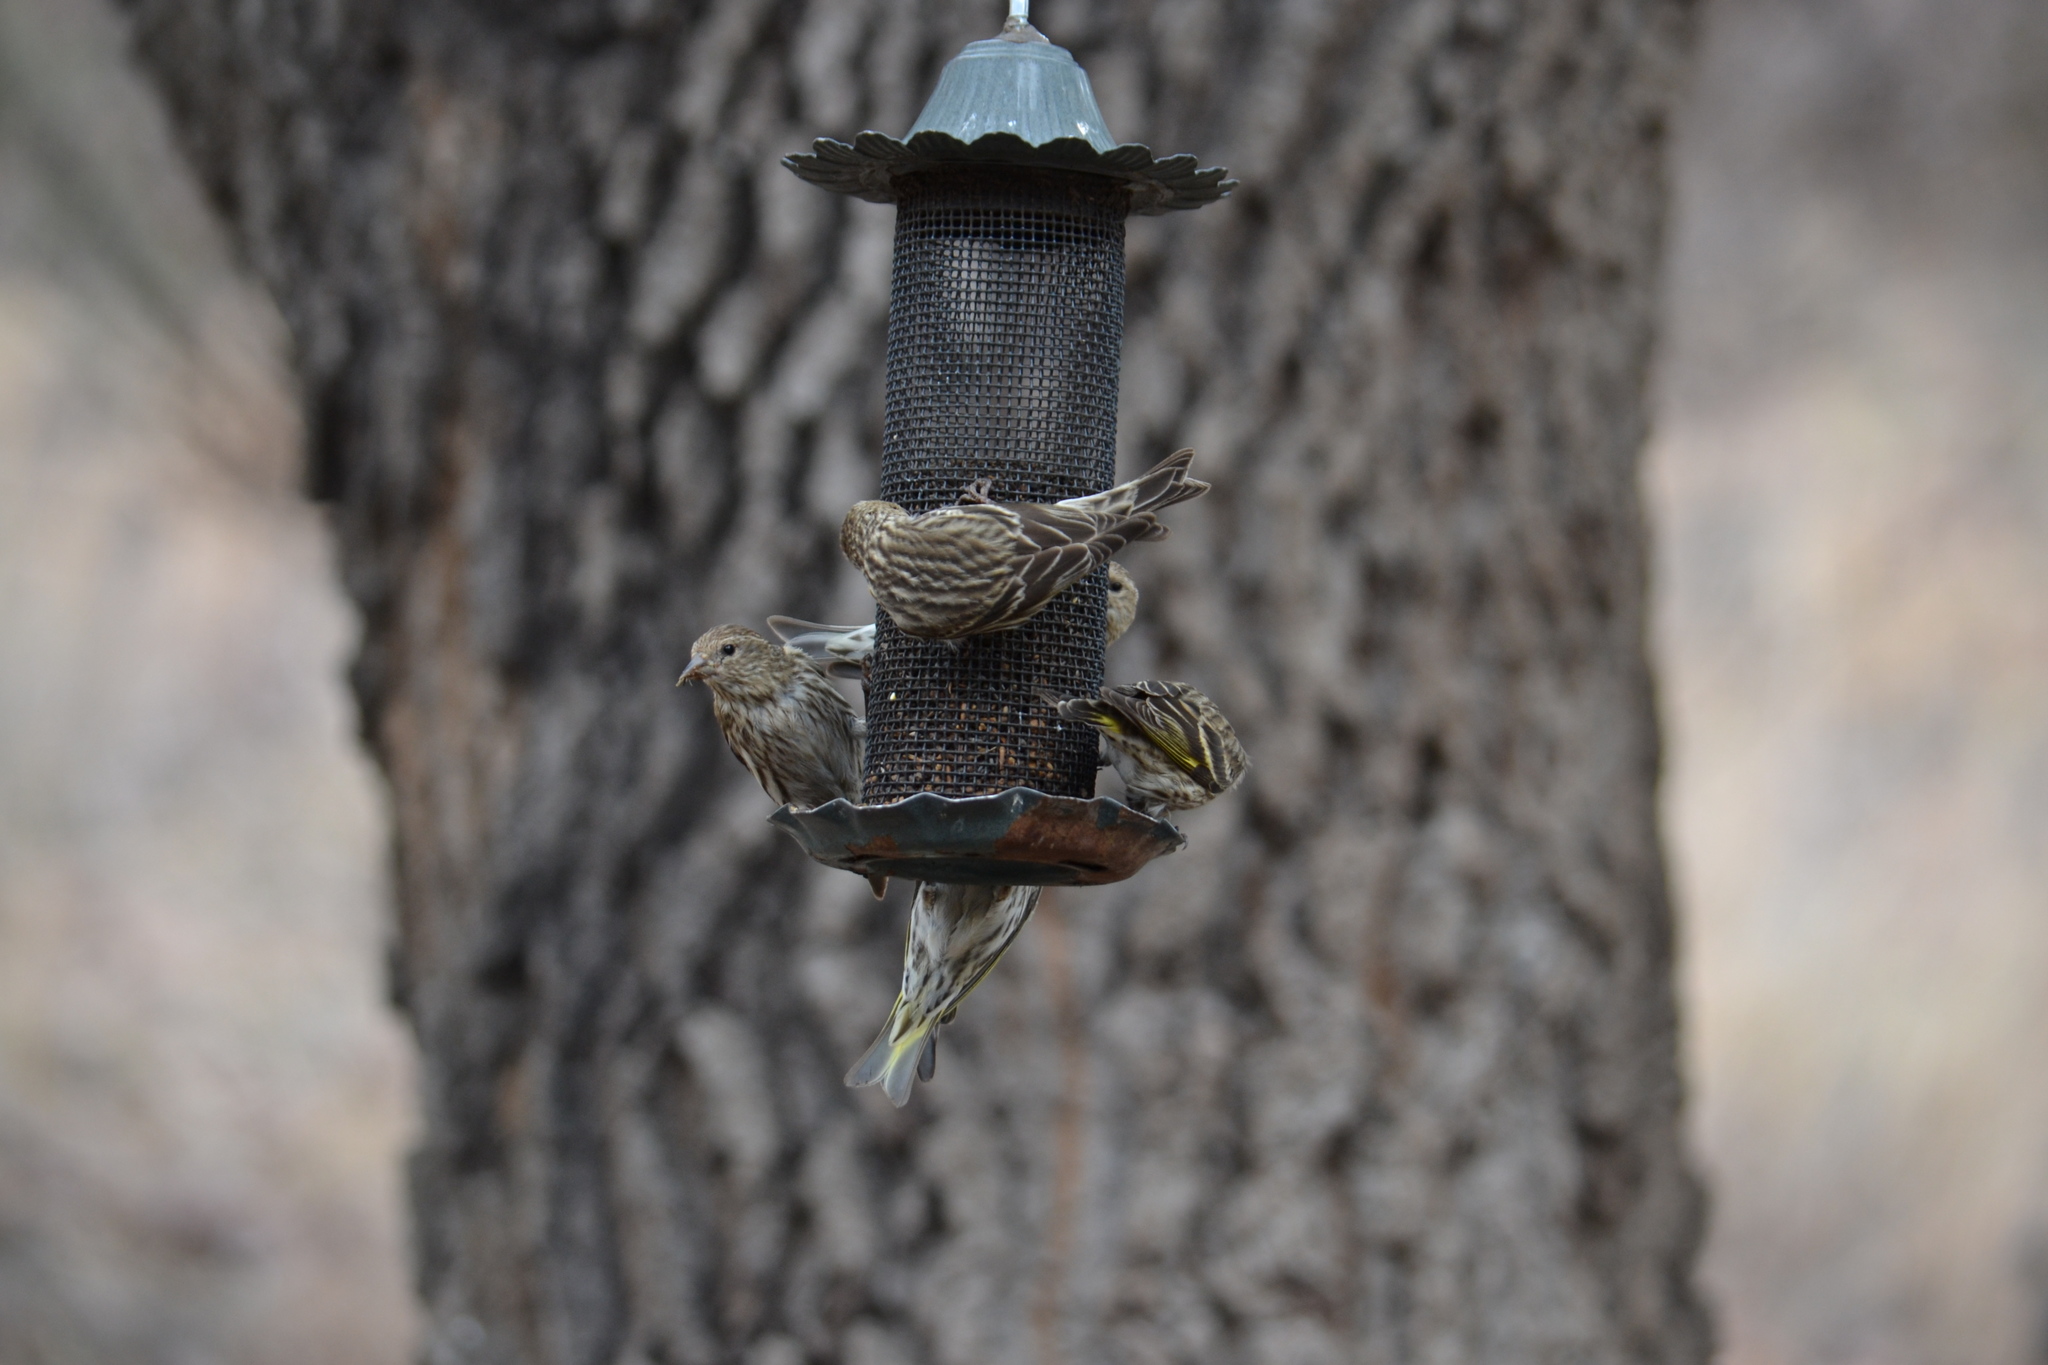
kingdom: Animalia
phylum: Chordata
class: Aves
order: Passeriformes
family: Fringillidae
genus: Spinus
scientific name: Spinus pinus
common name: Pine siskin
